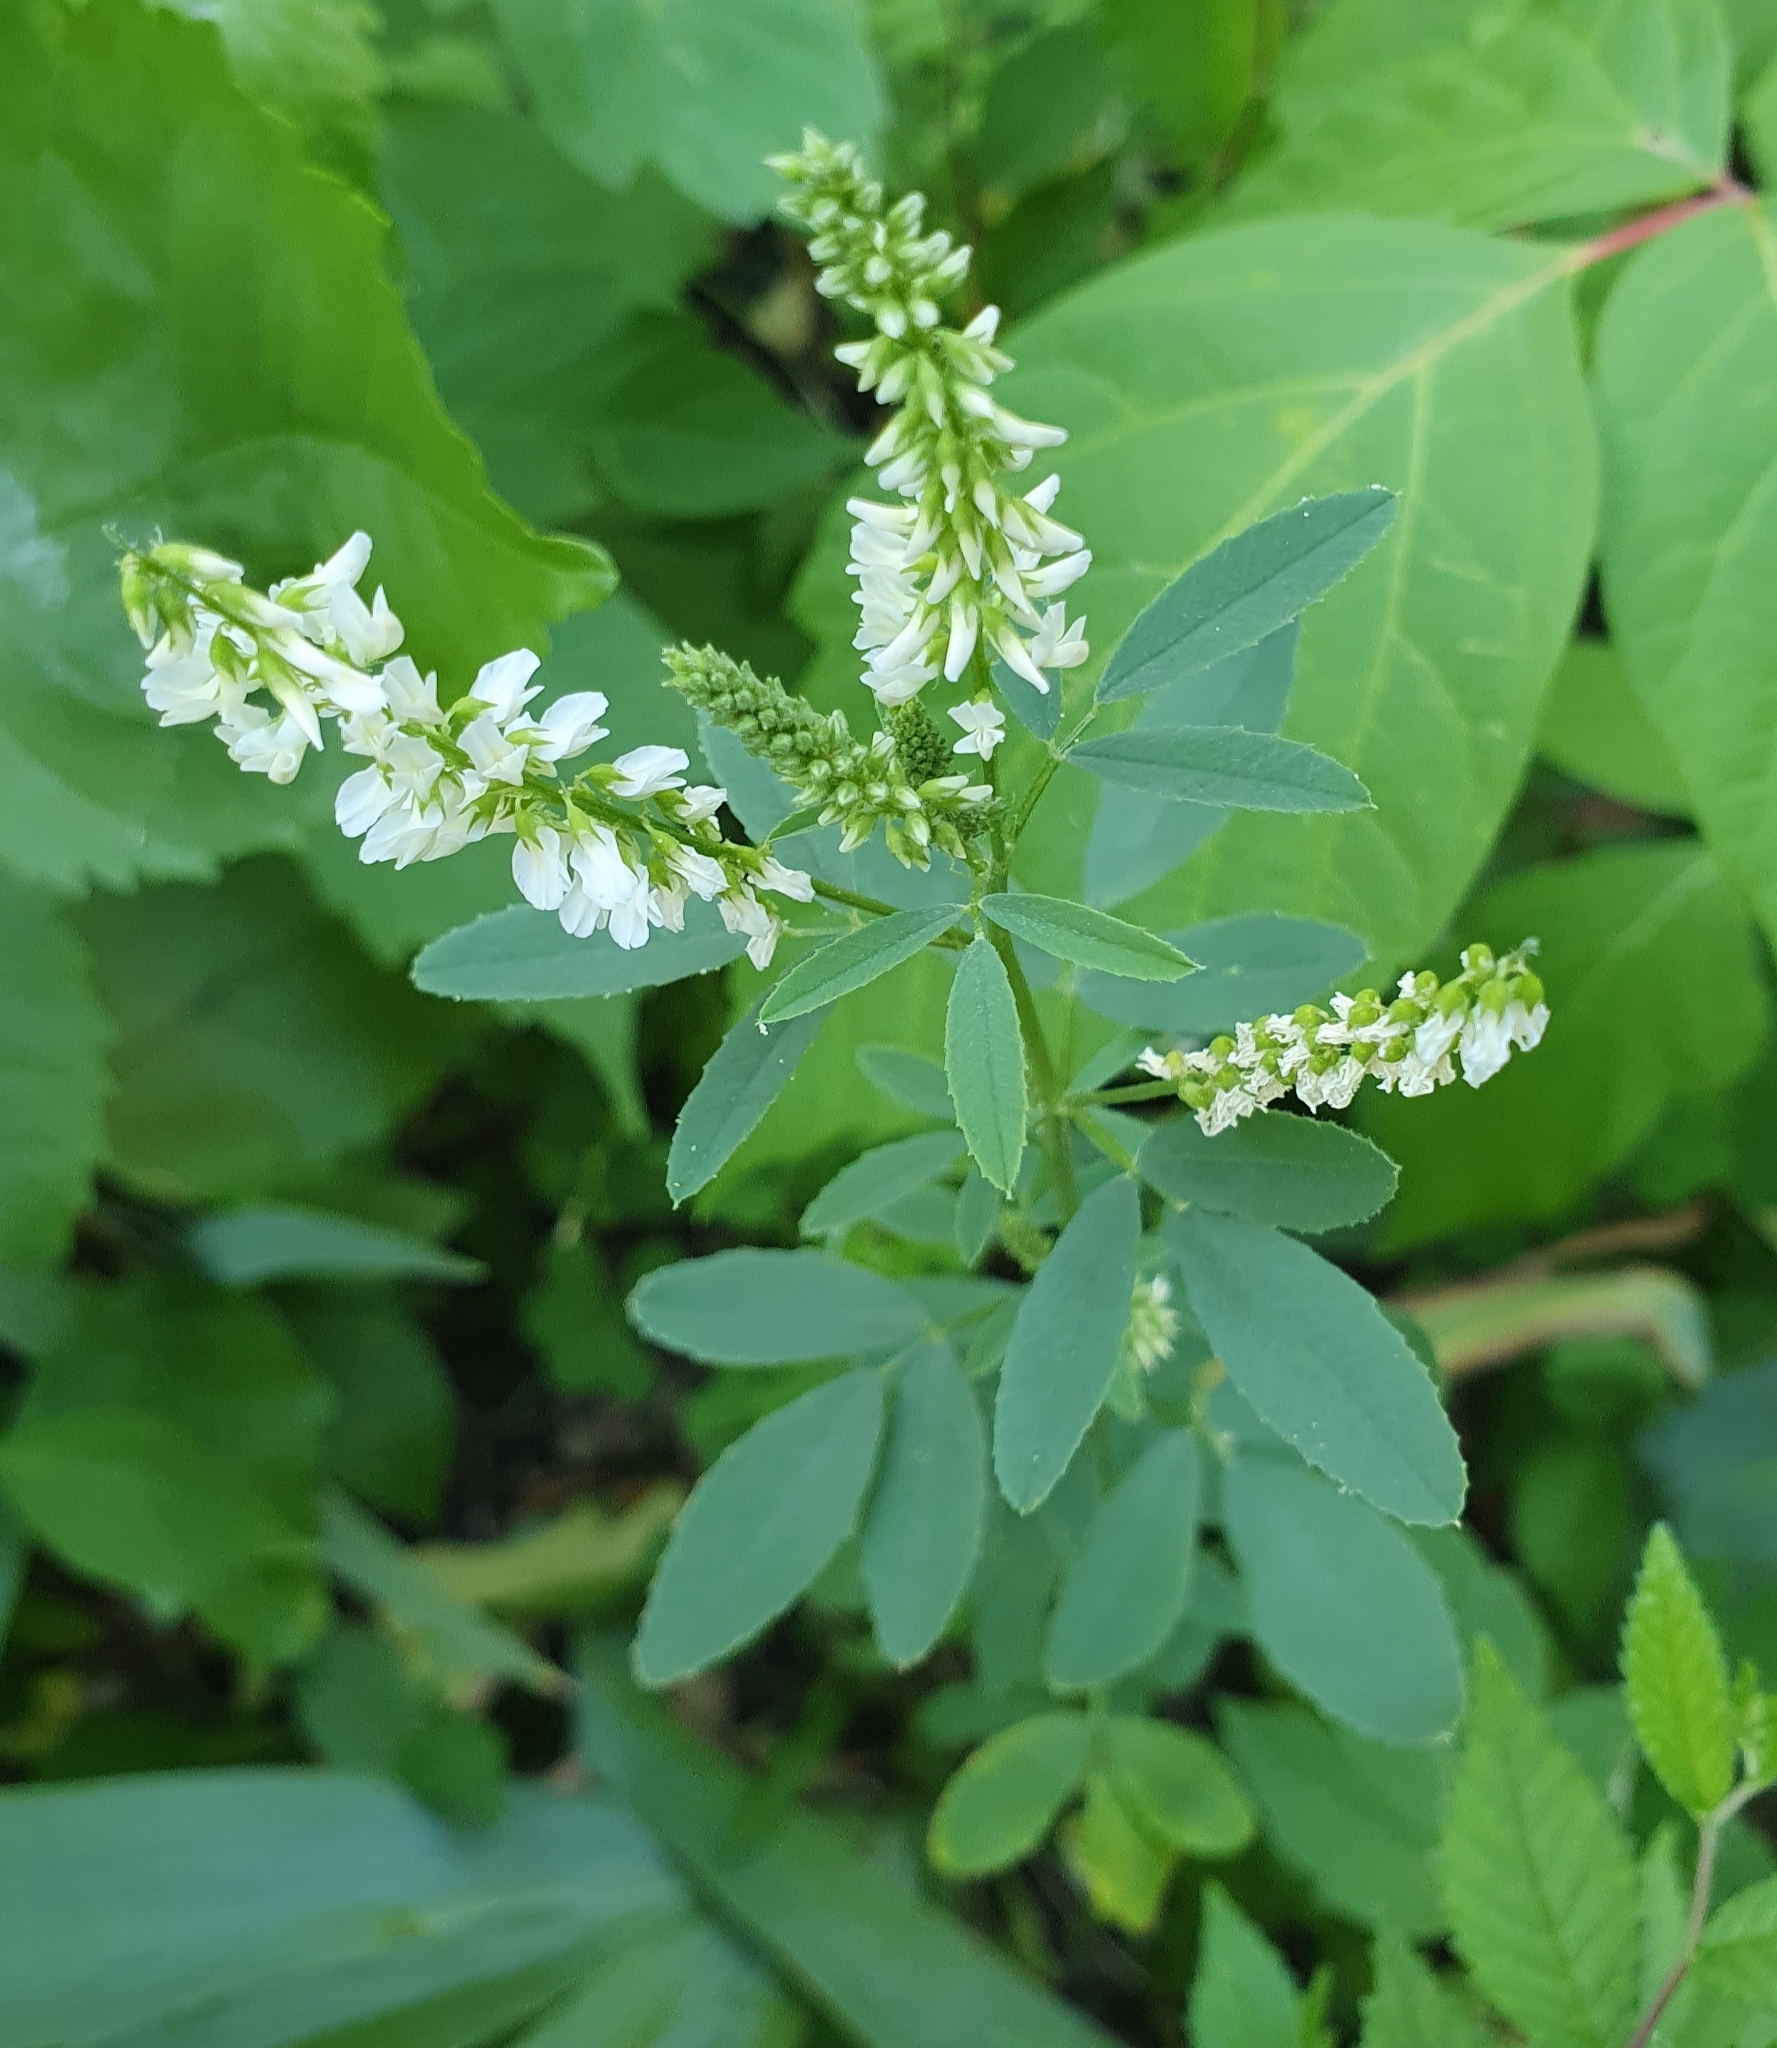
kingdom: Plantae
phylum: Tracheophyta
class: Magnoliopsida
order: Fabales
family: Fabaceae
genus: Melilotus
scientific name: Melilotus albus
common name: White melilot
